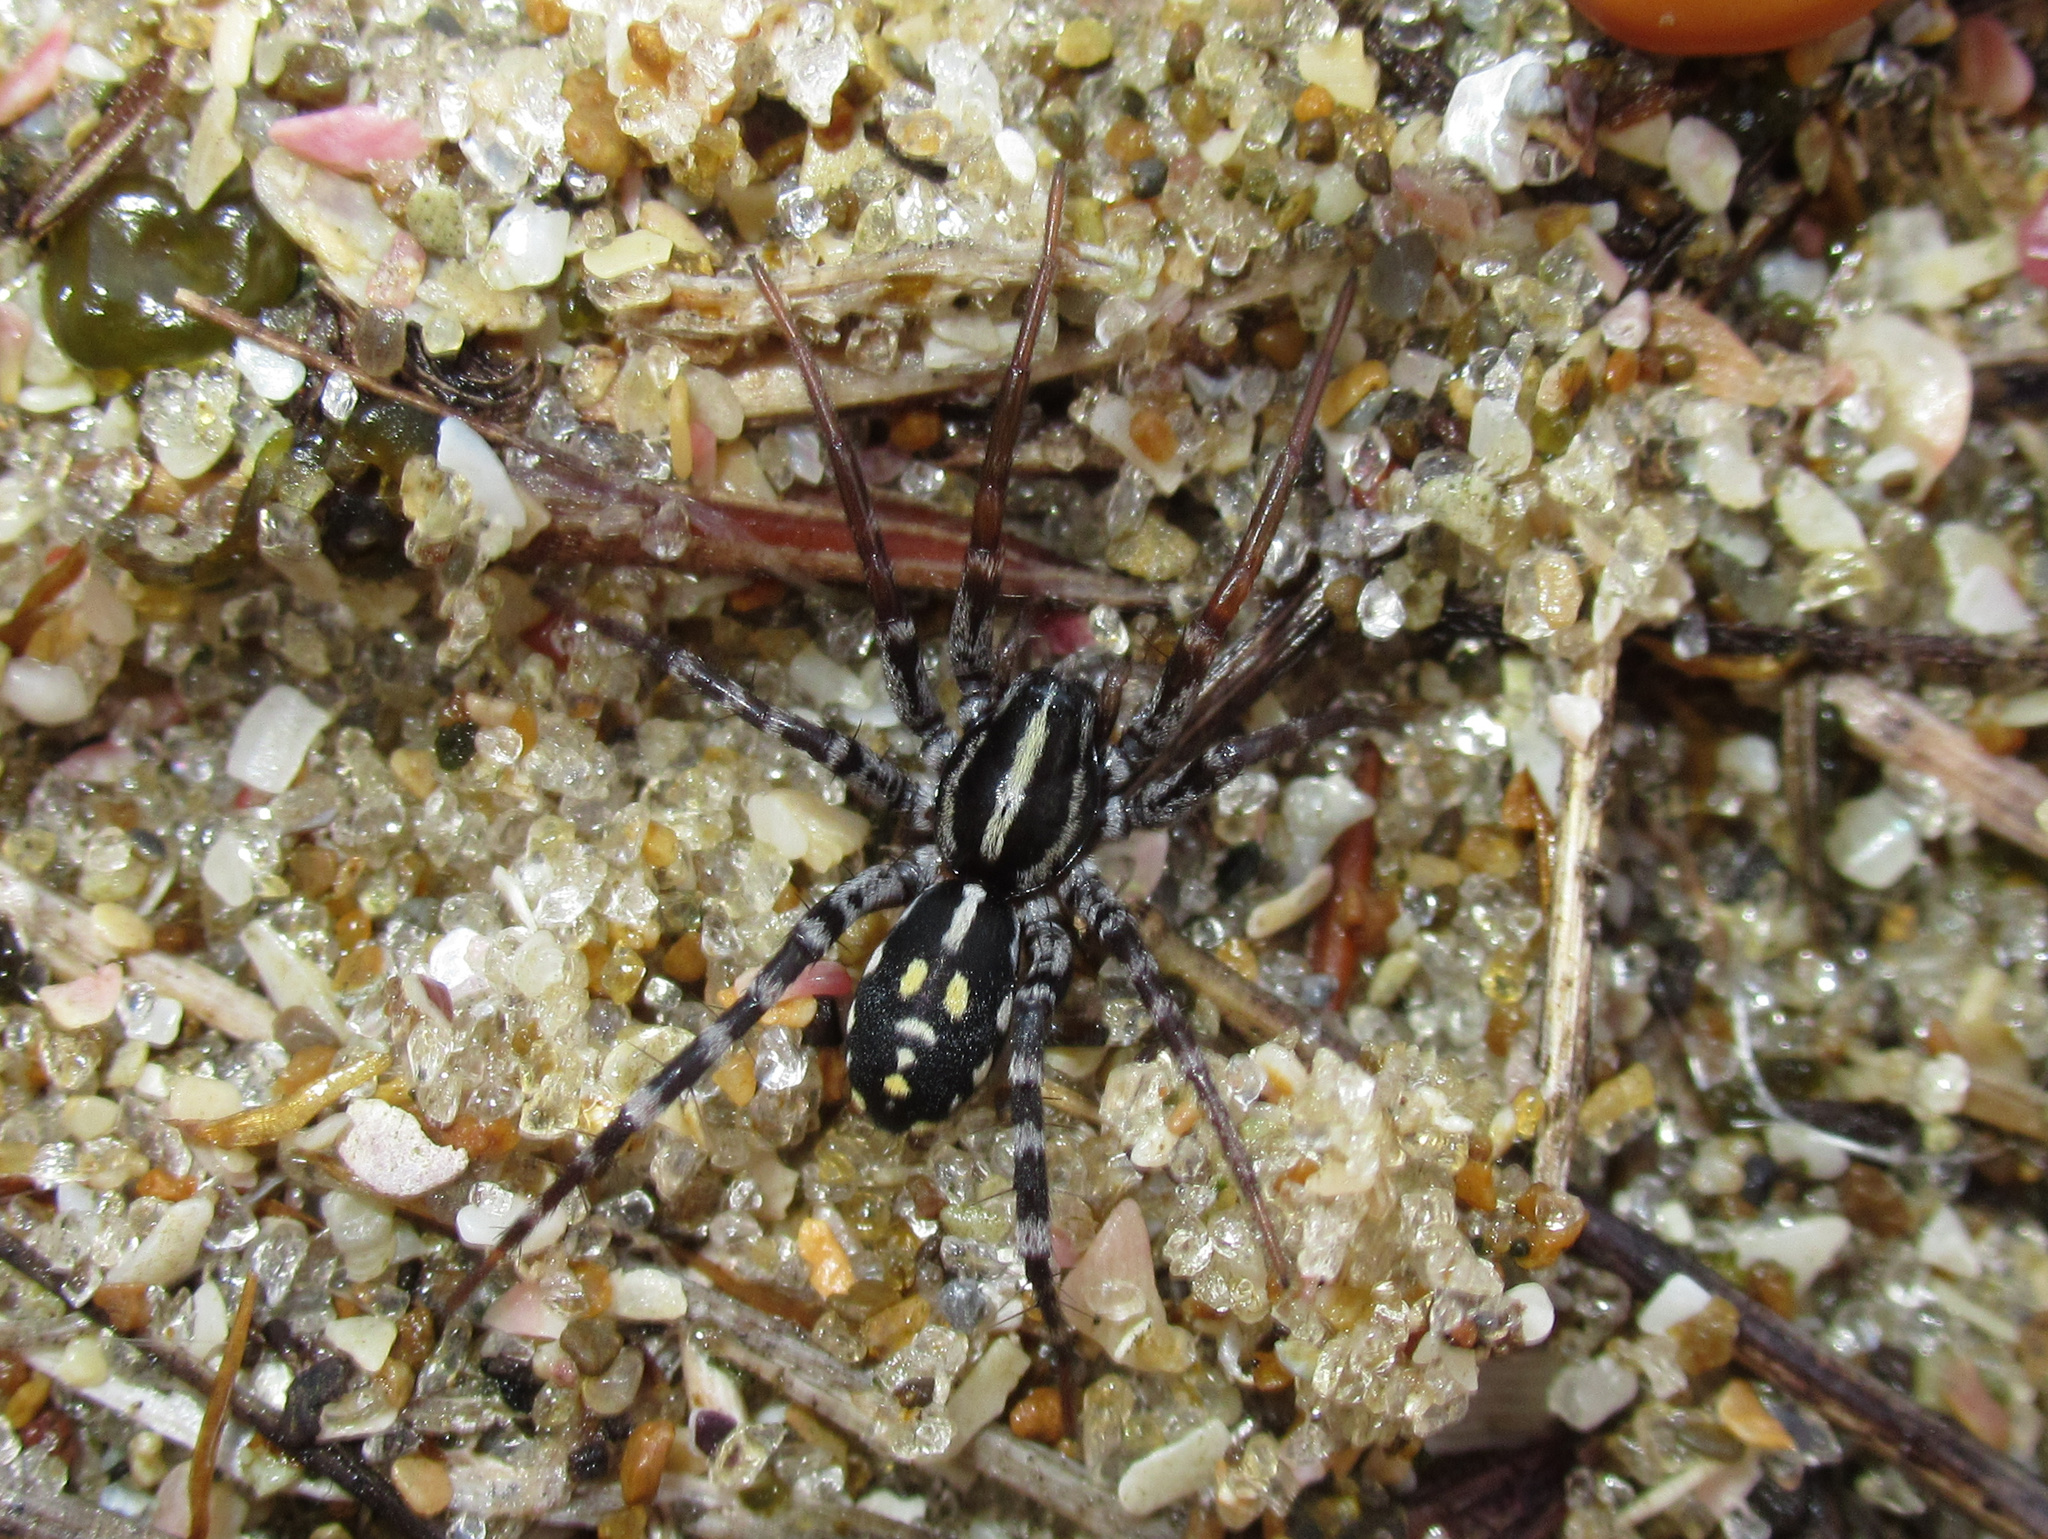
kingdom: Animalia
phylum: Arthropoda
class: Arachnida
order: Araneae
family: Corinnidae
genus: Nyssus
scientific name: Nyssus coloripes
